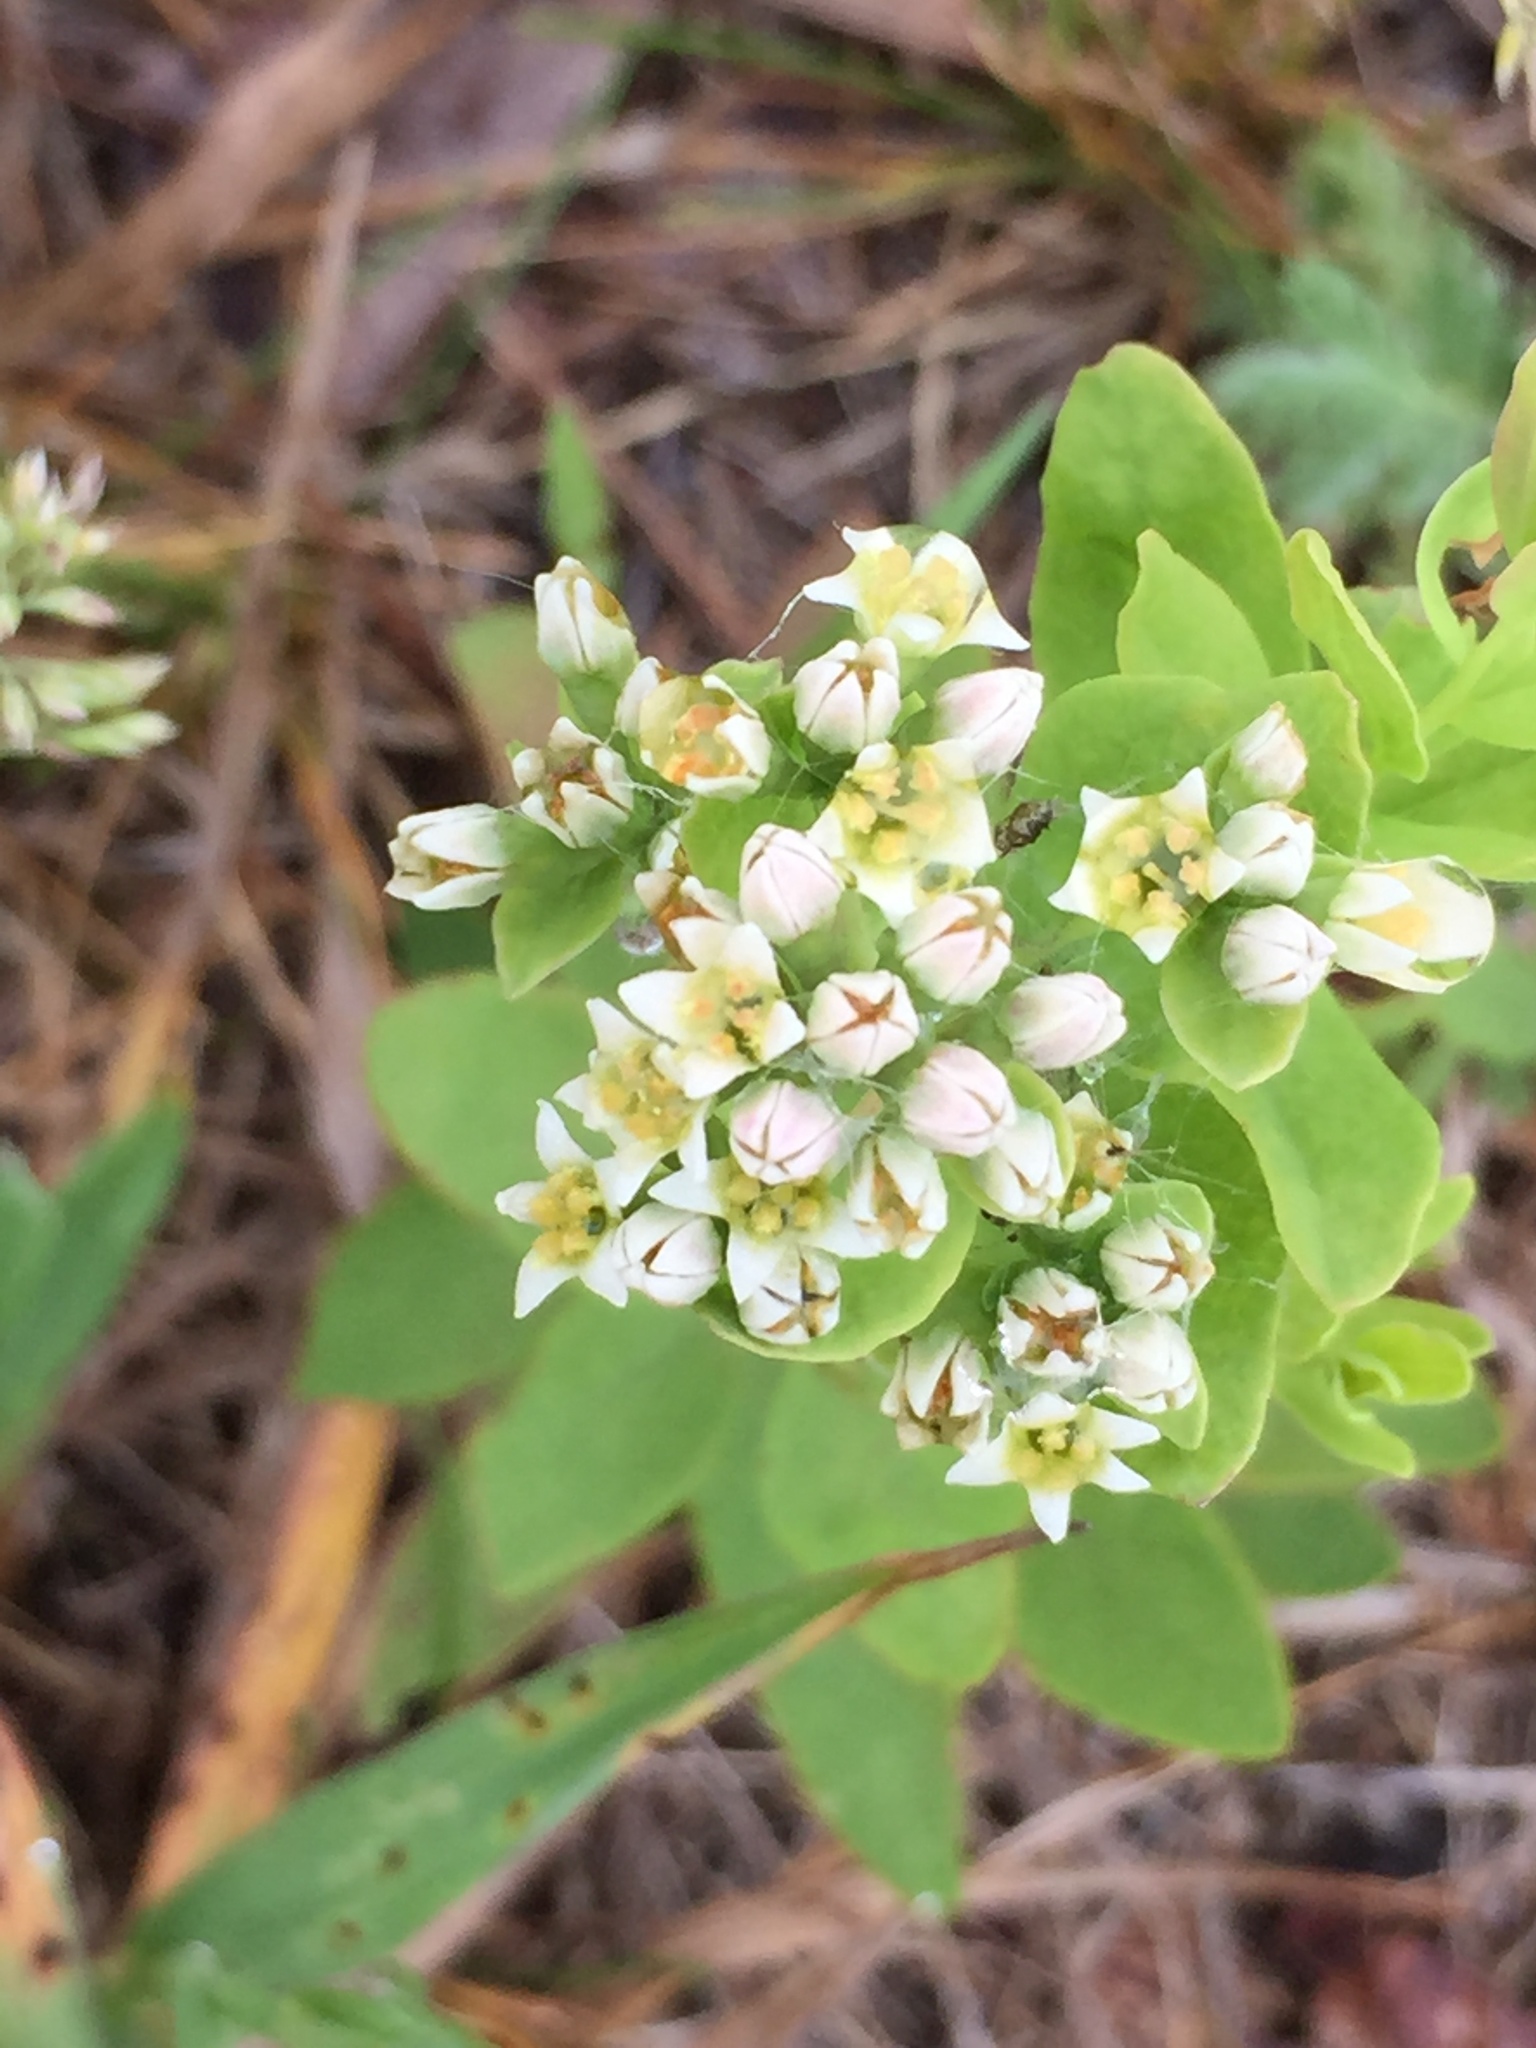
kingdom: Plantae
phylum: Tracheophyta
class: Magnoliopsida
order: Santalales
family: Comandraceae
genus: Comandra
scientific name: Comandra umbellata
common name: Bastard toadflax
